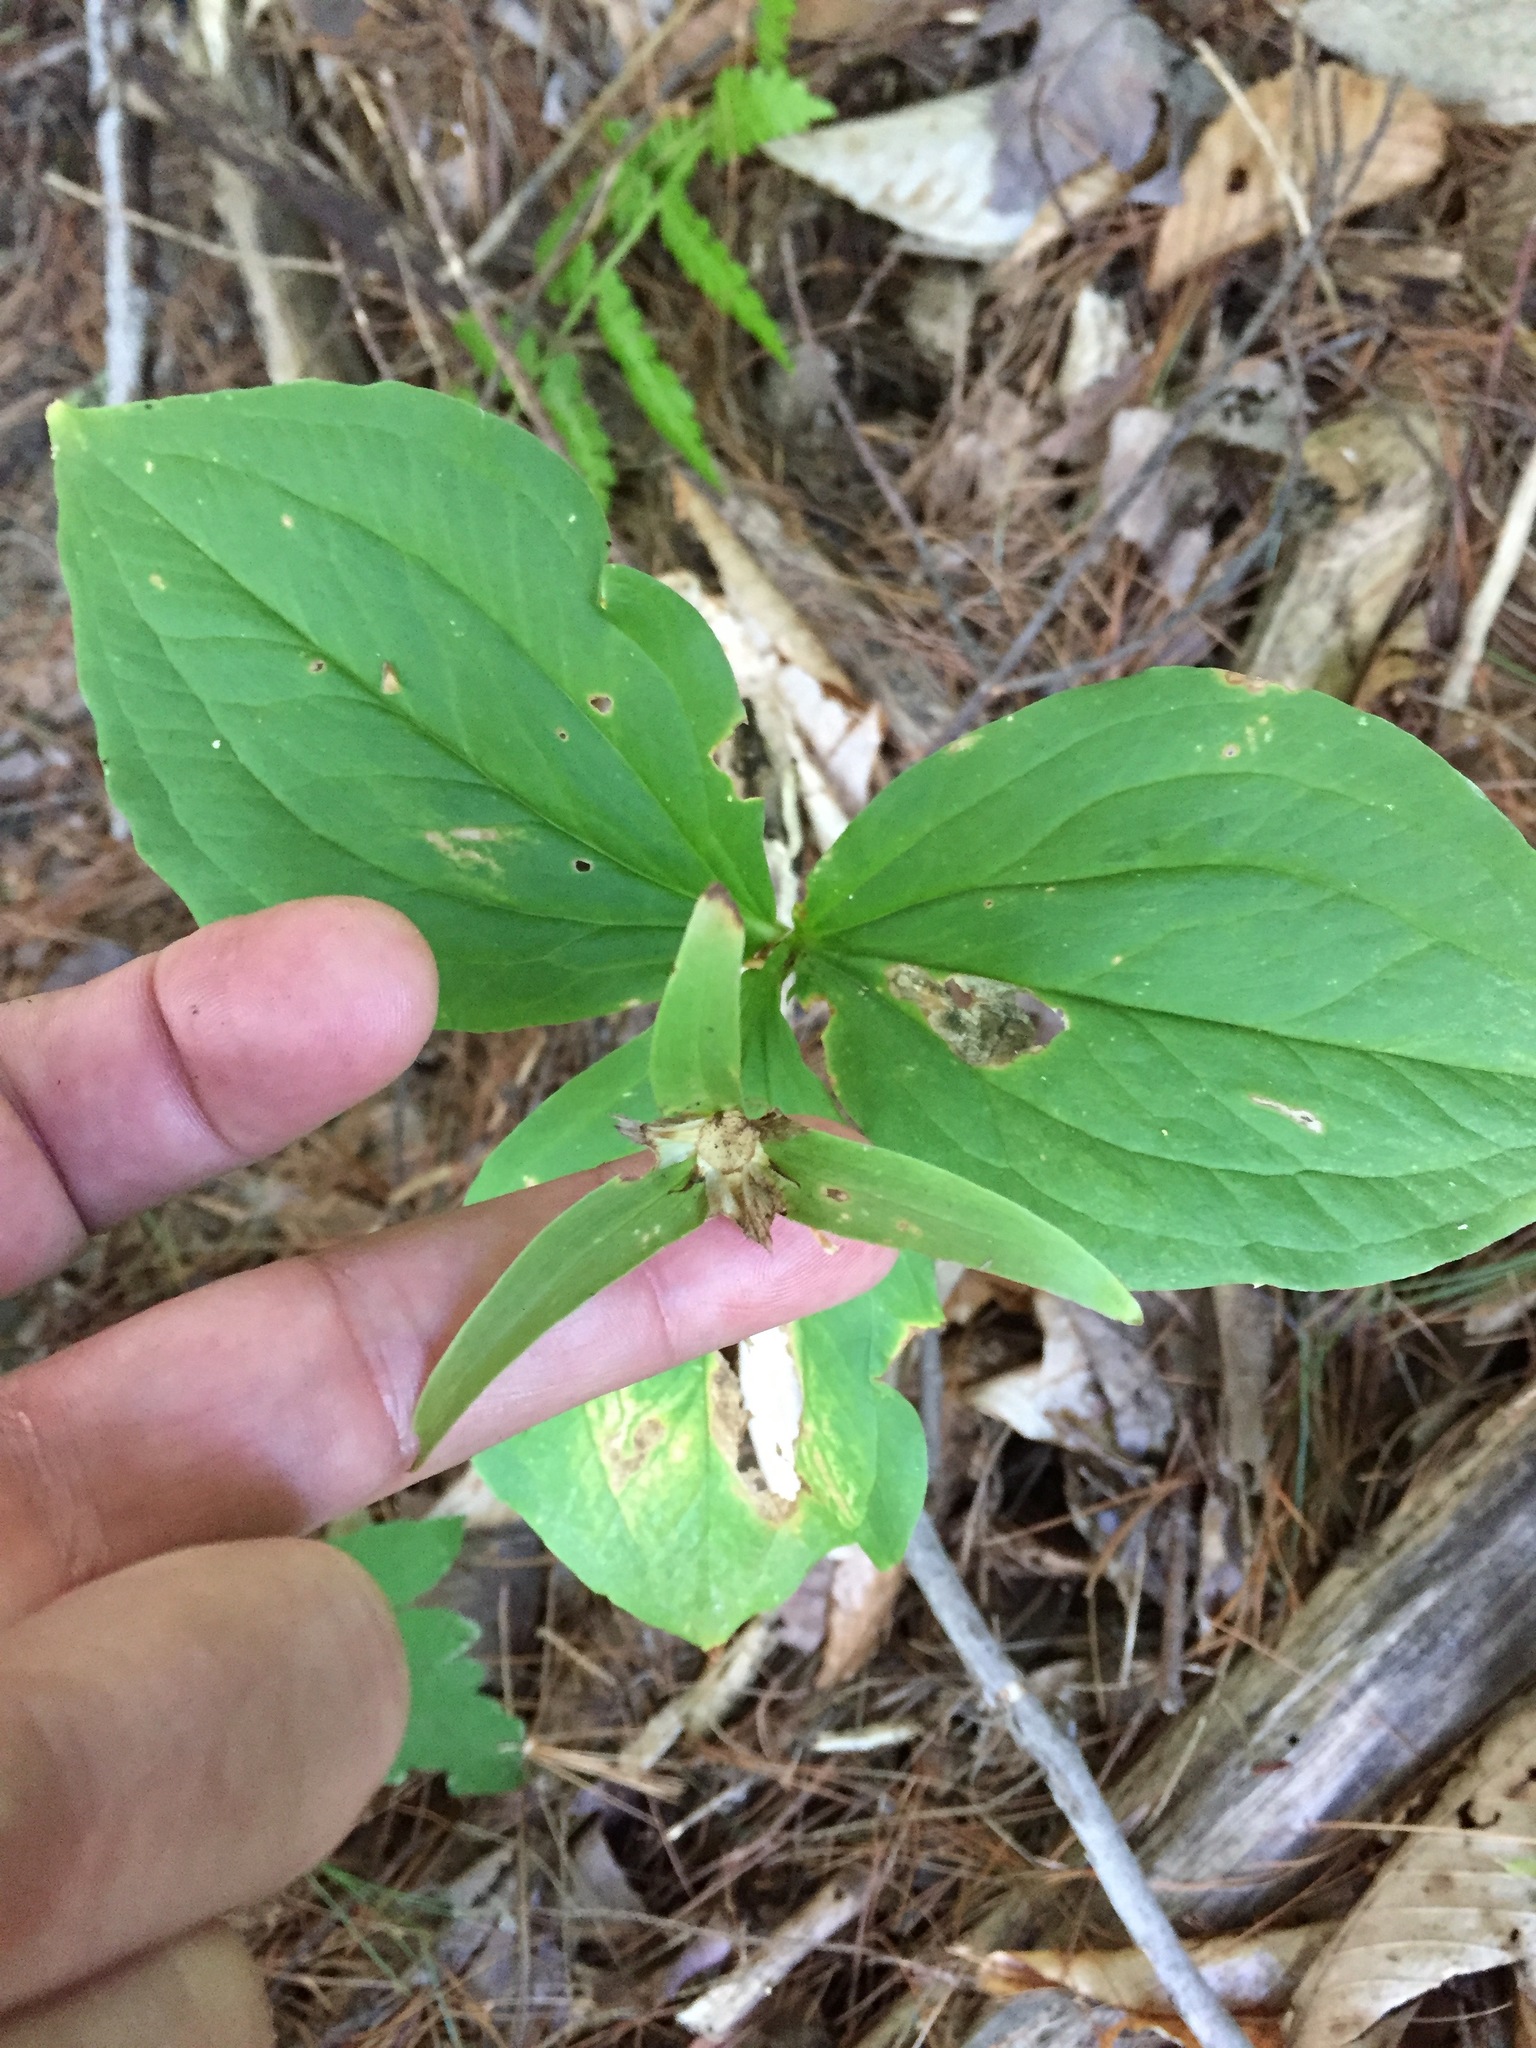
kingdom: Plantae
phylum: Tracheophyta
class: Liliopsida
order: Liliales
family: Melanthiaceae
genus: Trillium
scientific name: Trillium grandiflorum
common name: Great white trillium
